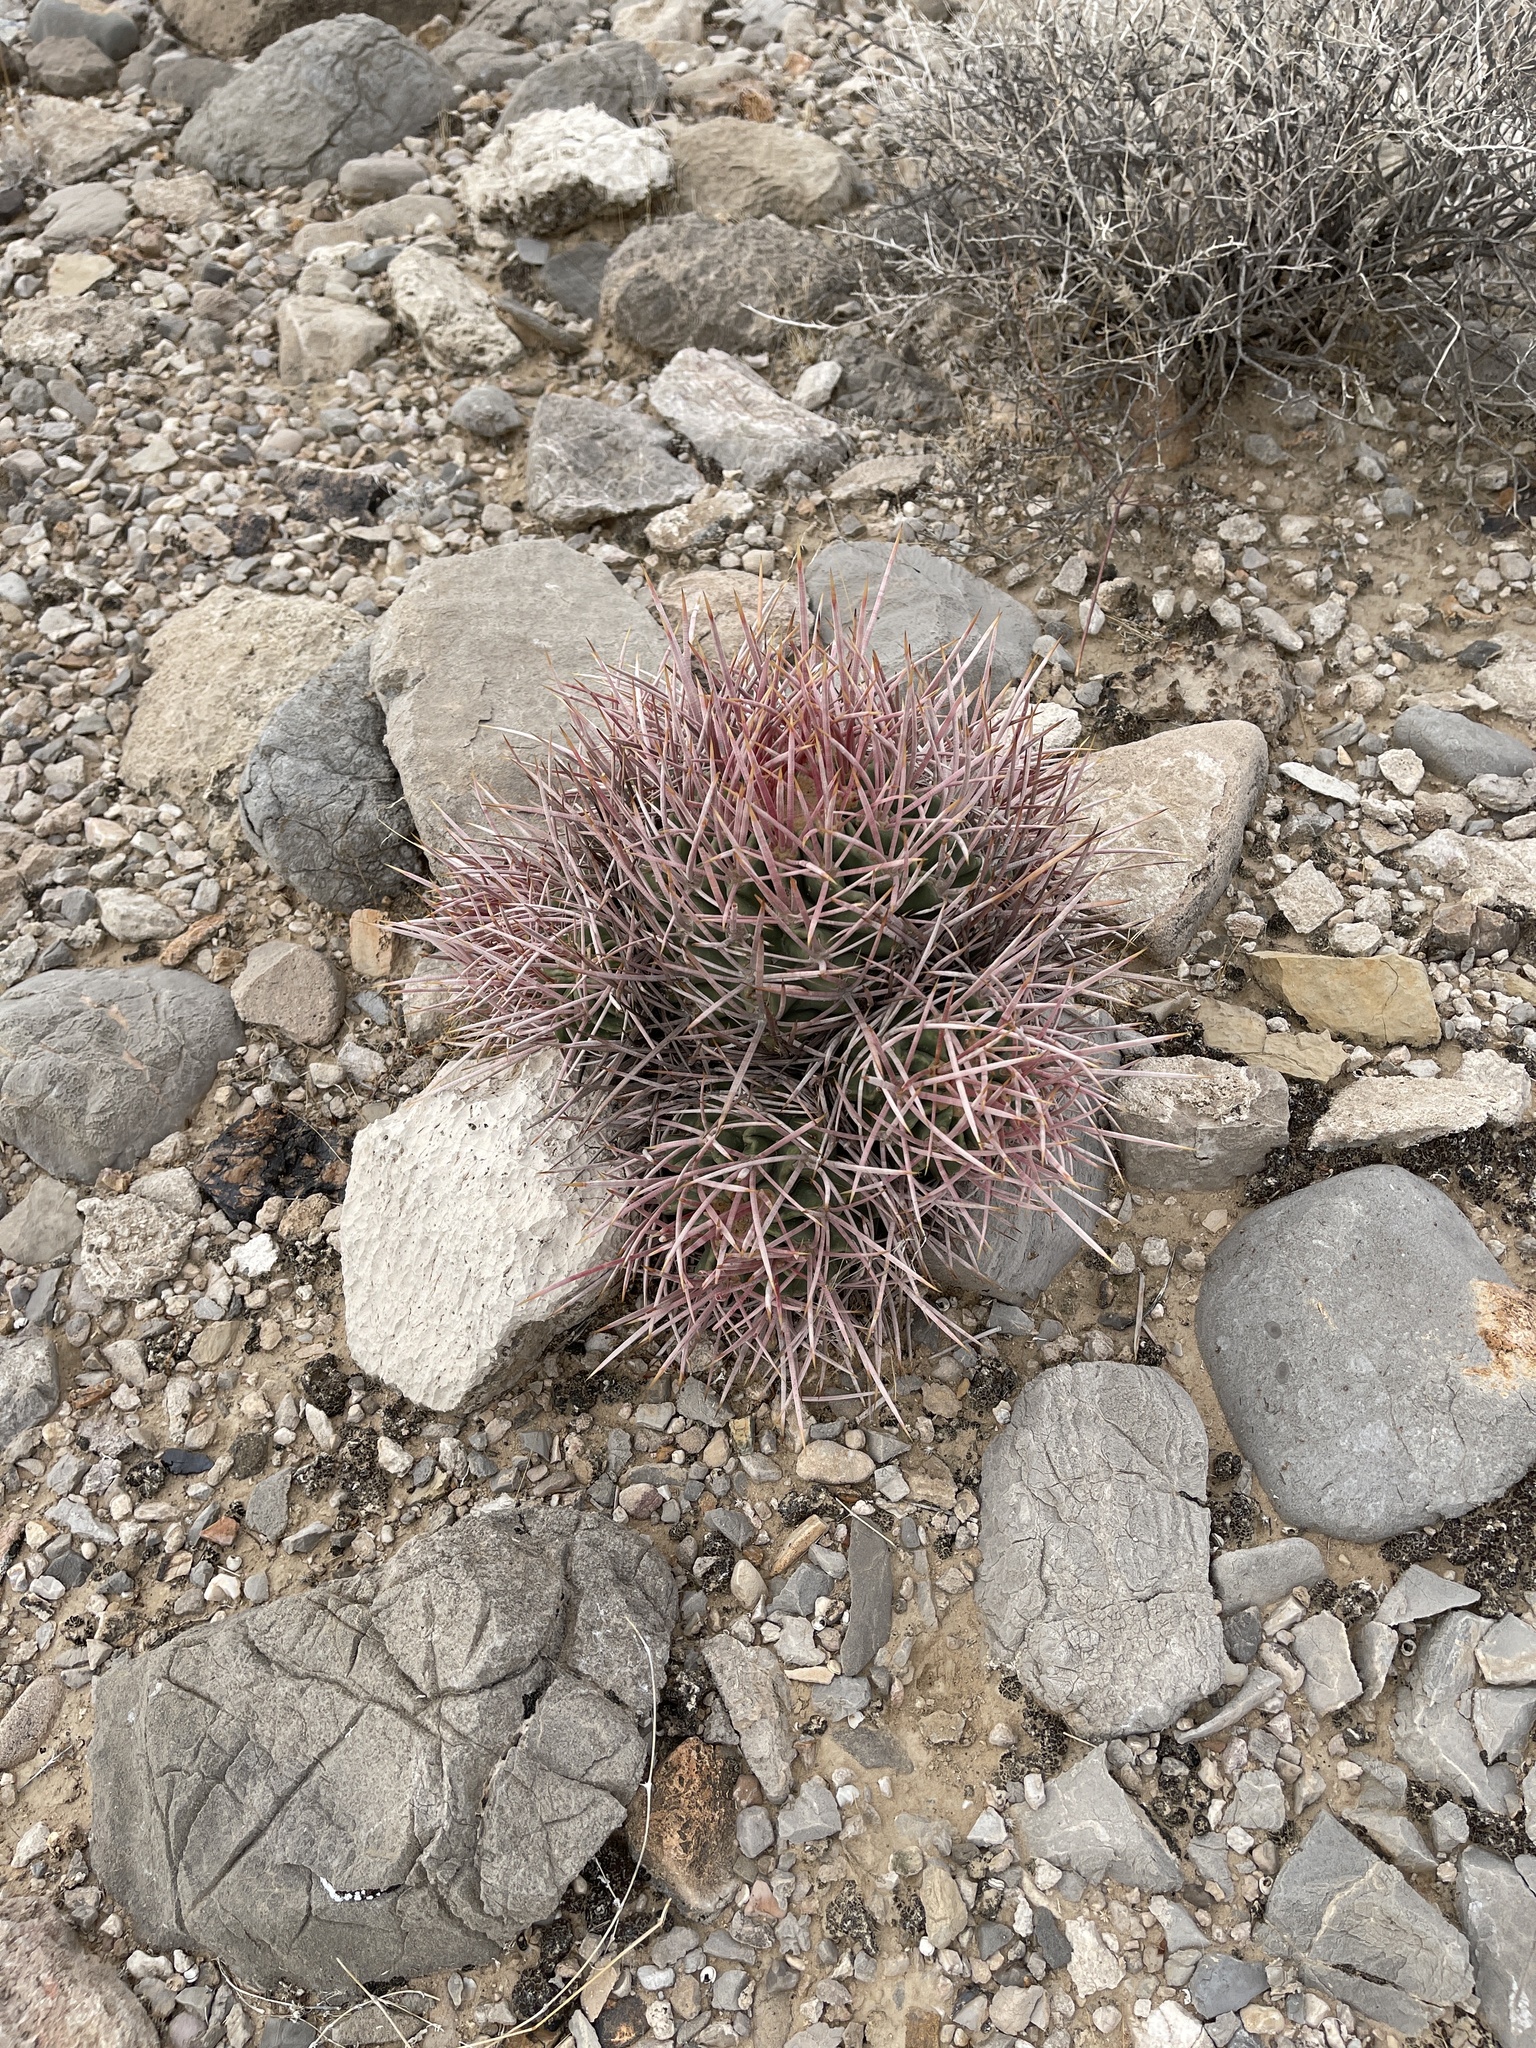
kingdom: Plantae
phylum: Tracheophyta
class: Magnoliopsida
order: Caryophyllales
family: Cactaceae
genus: Echinocactus
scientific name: Echinocactus polycephalus
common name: Cottontop cactus
